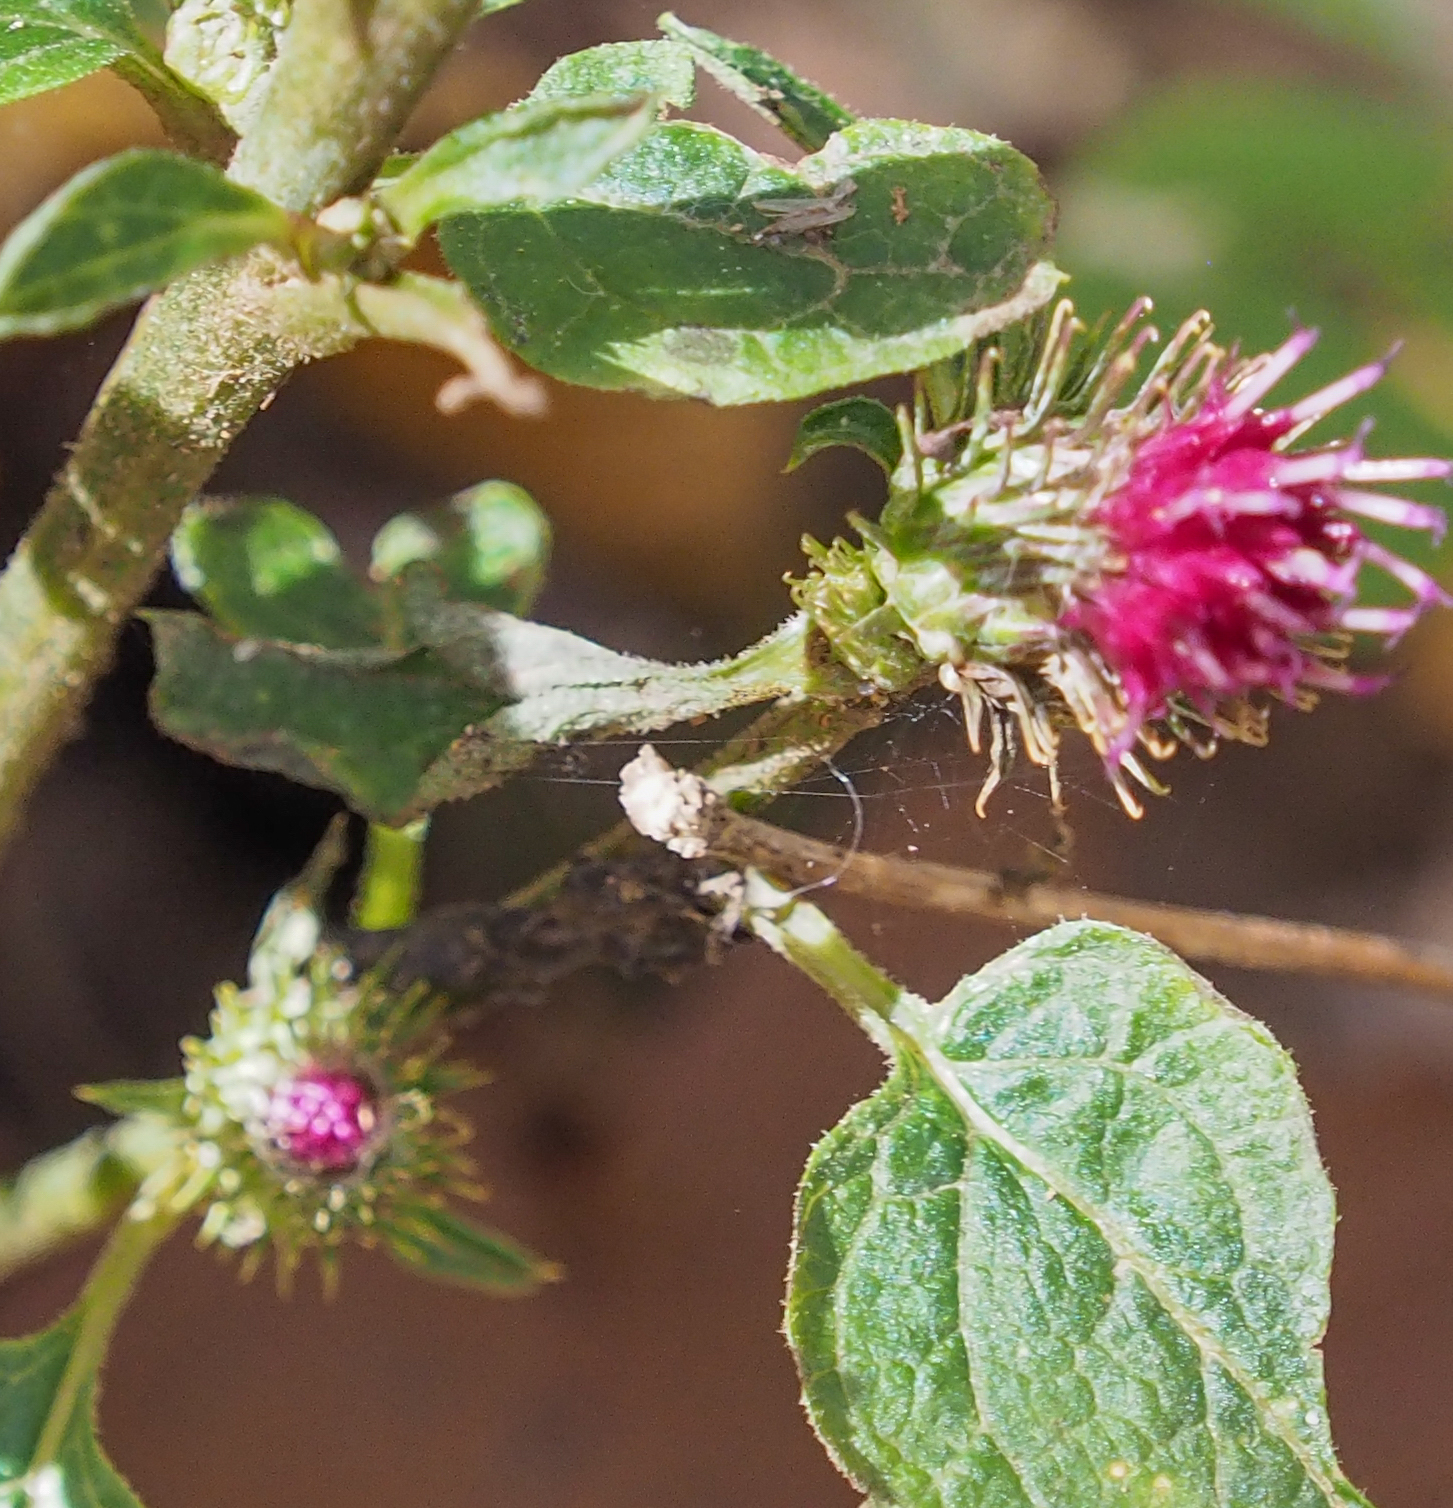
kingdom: Plantae
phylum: Tracheophyta
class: Magnoliopsida
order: Asterales
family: Asteraceae
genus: Arctium
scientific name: Arctium minus
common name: Lesser burdock
